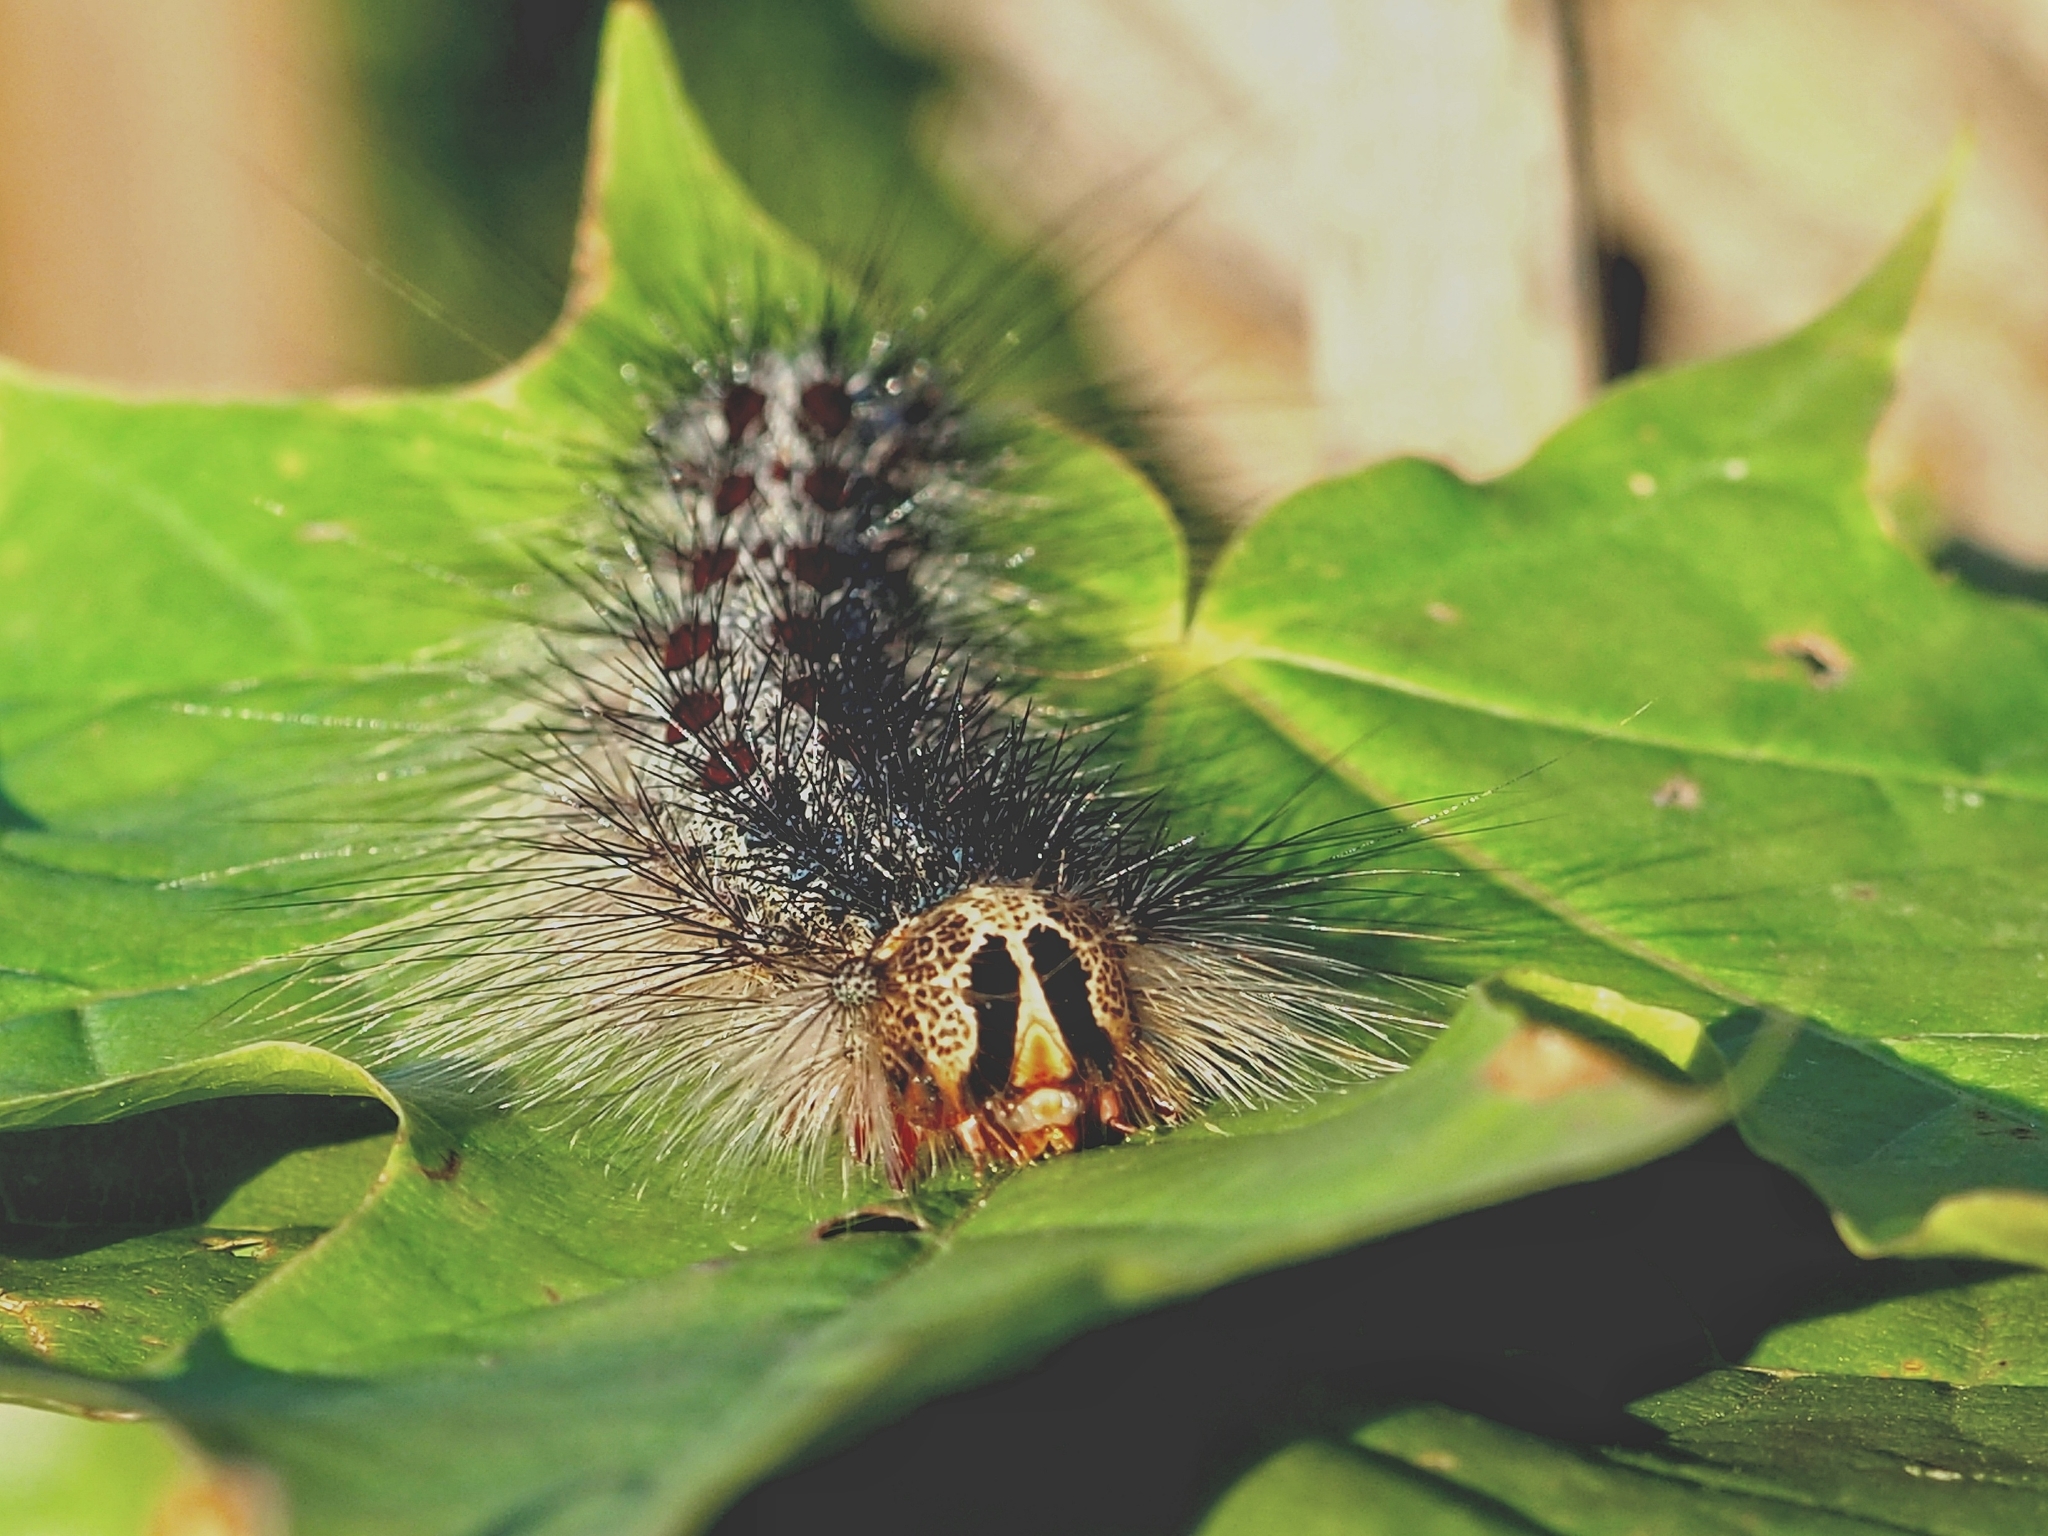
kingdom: Animalia
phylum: Arthropoda
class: Insecta
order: Lepidoptera
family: Erebidae
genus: Lymantria
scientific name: Lymantria dispar
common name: Gypsy moth
